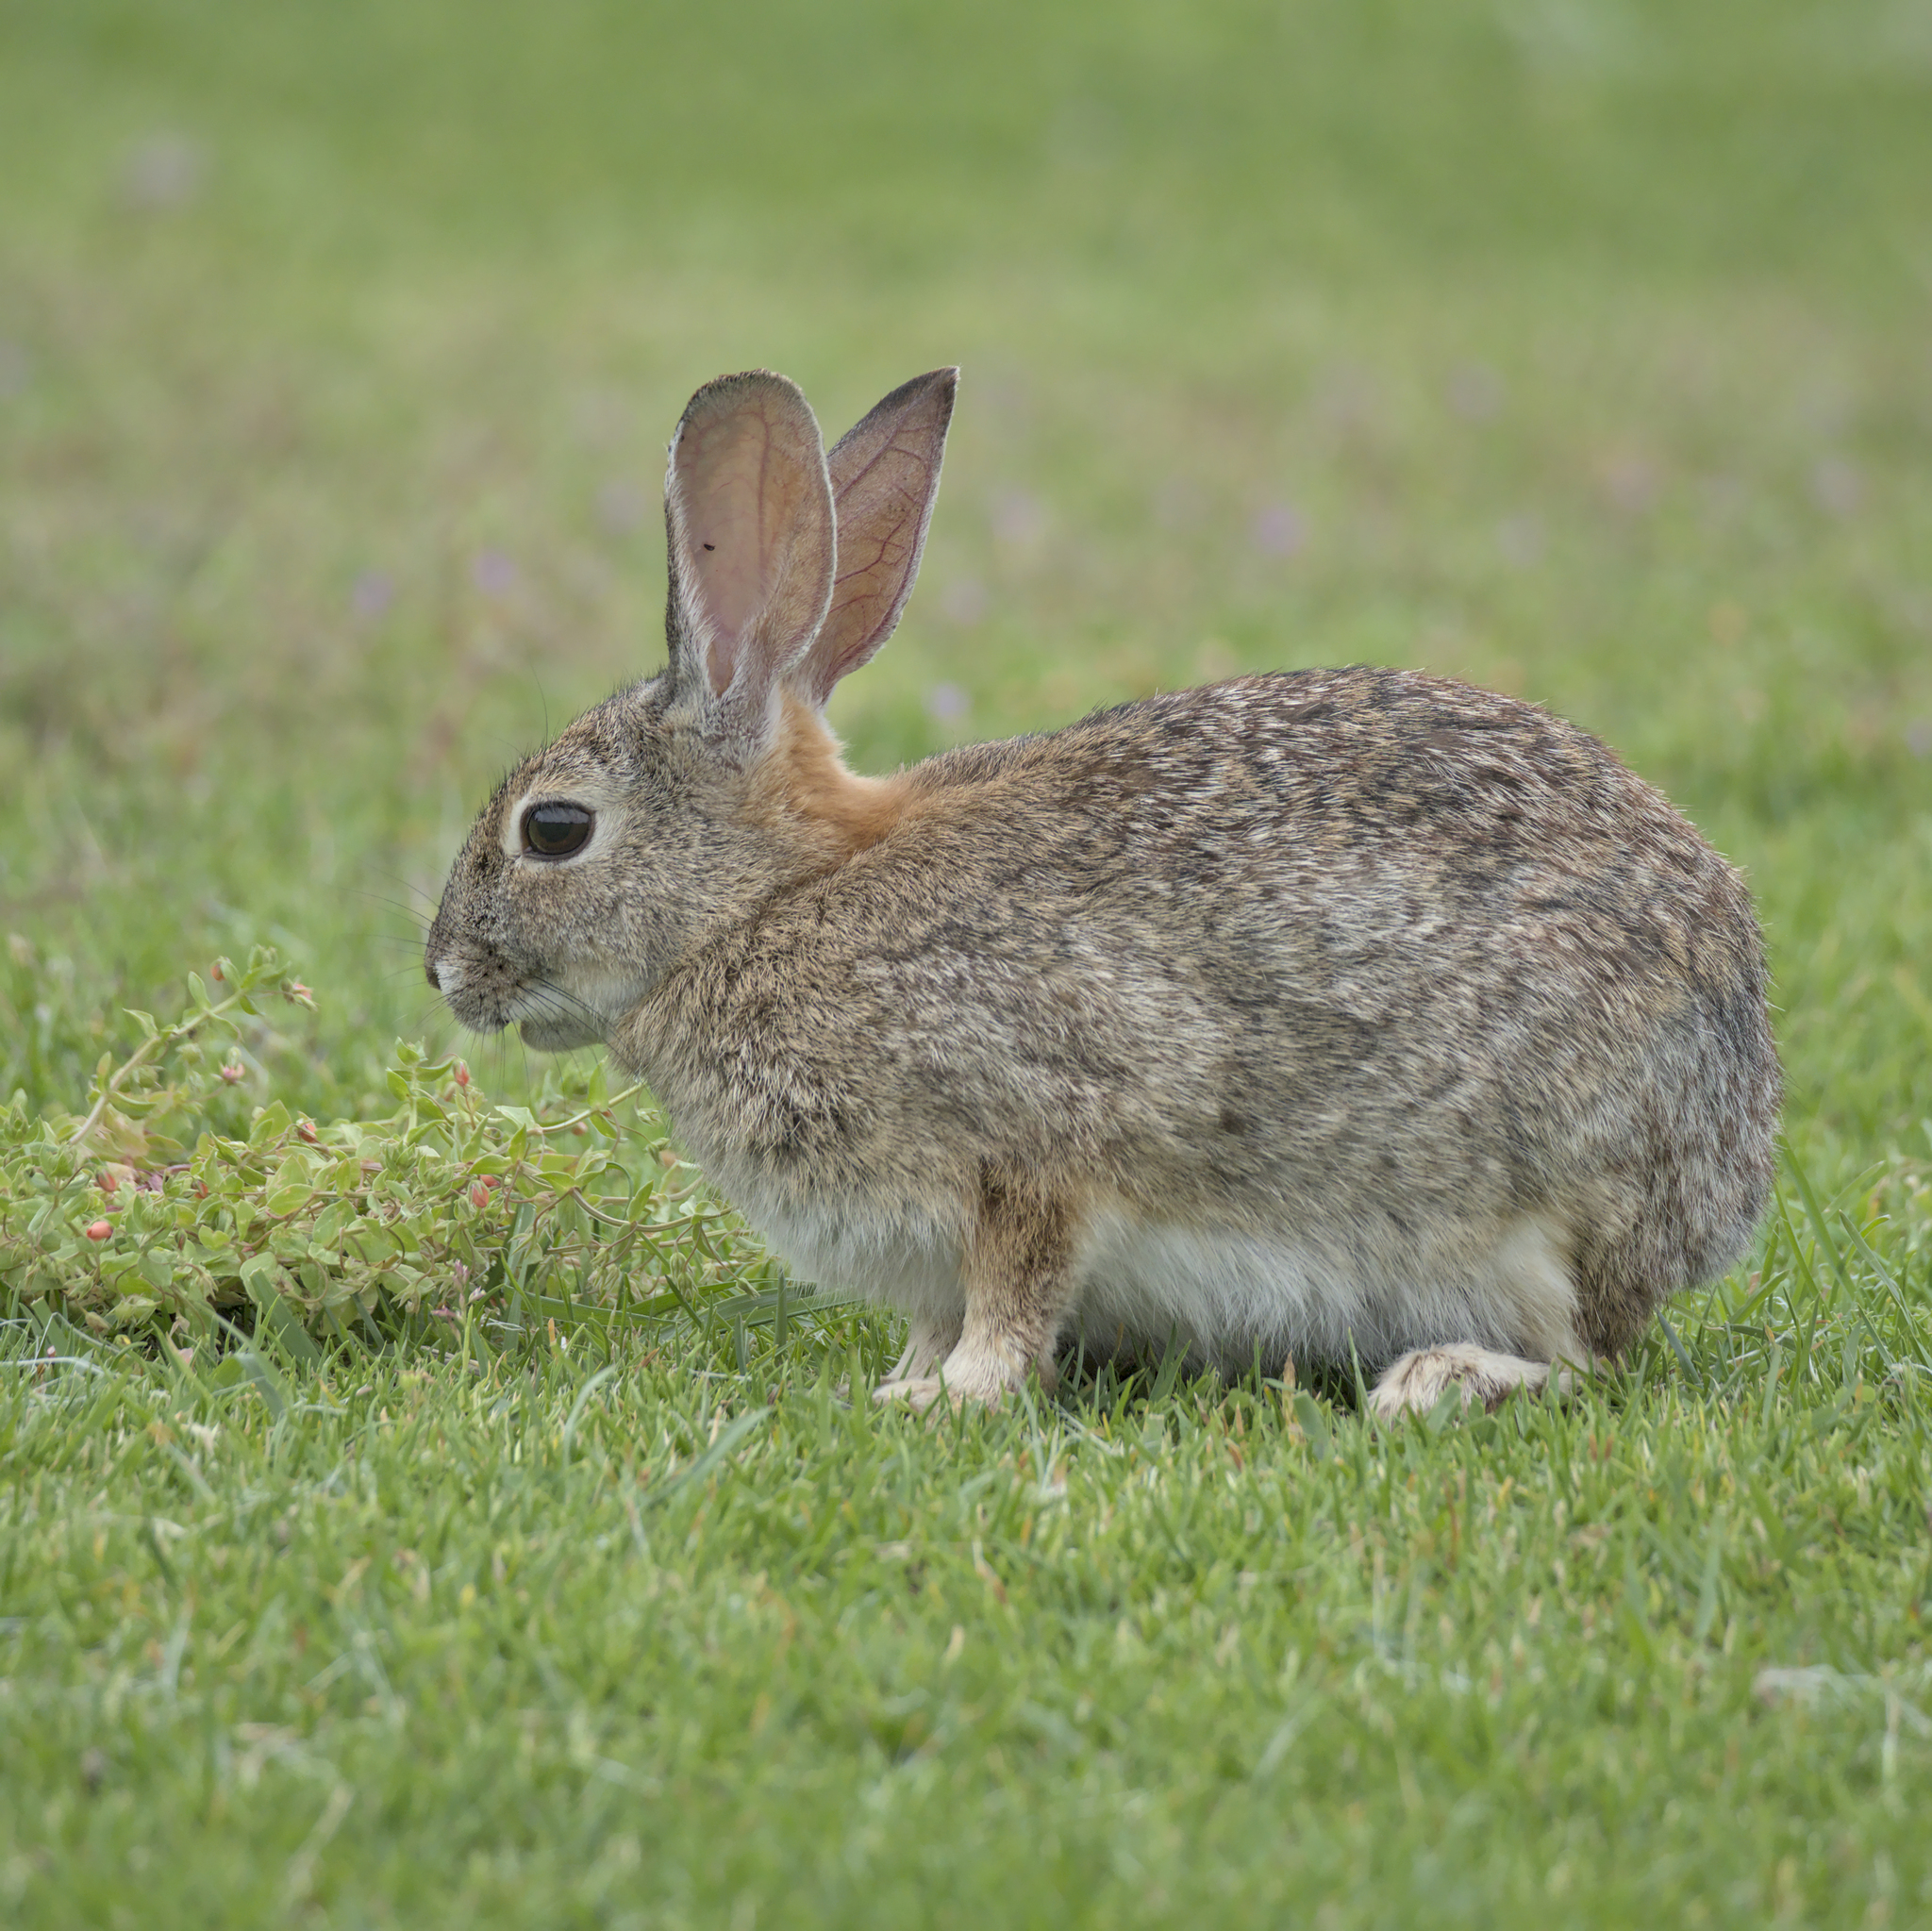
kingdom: Animalia
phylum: Chordata
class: Mammalia
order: Lagomorpha
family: Leporidae
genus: Sylvilagus
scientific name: Sylvilagus audubonii
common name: Desert cottontail
